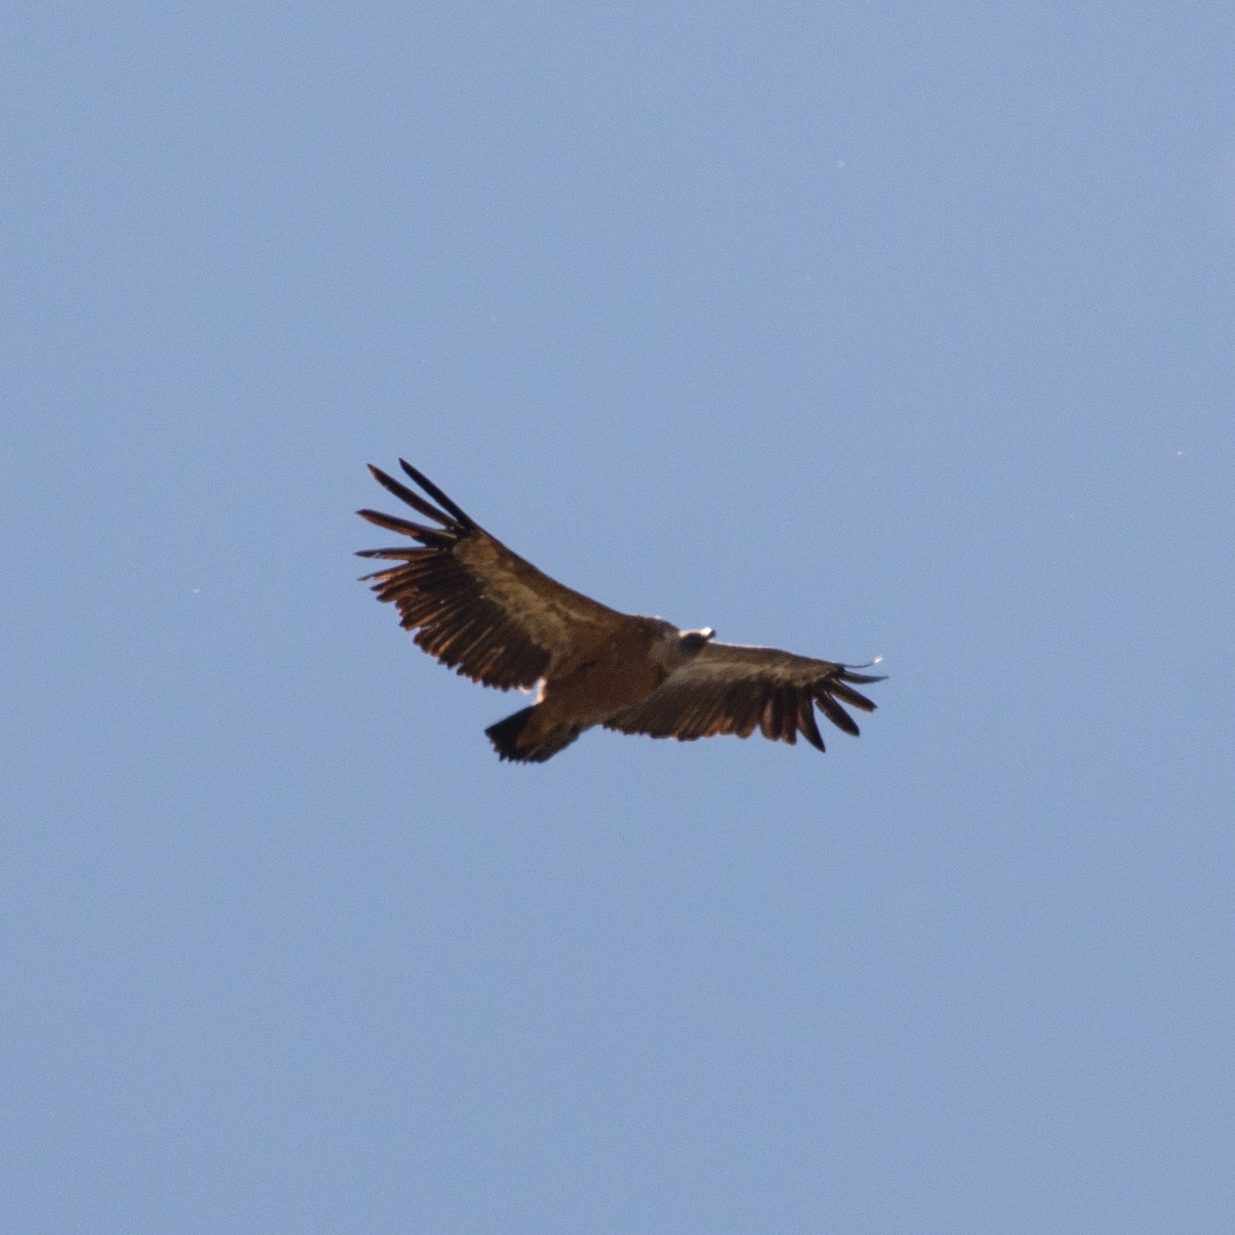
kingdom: Animalia
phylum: Chordata
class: Aves
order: Accipitriformes
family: Accipitridae
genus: Gyps
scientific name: Gyps fulvus
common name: Griffon vulture
